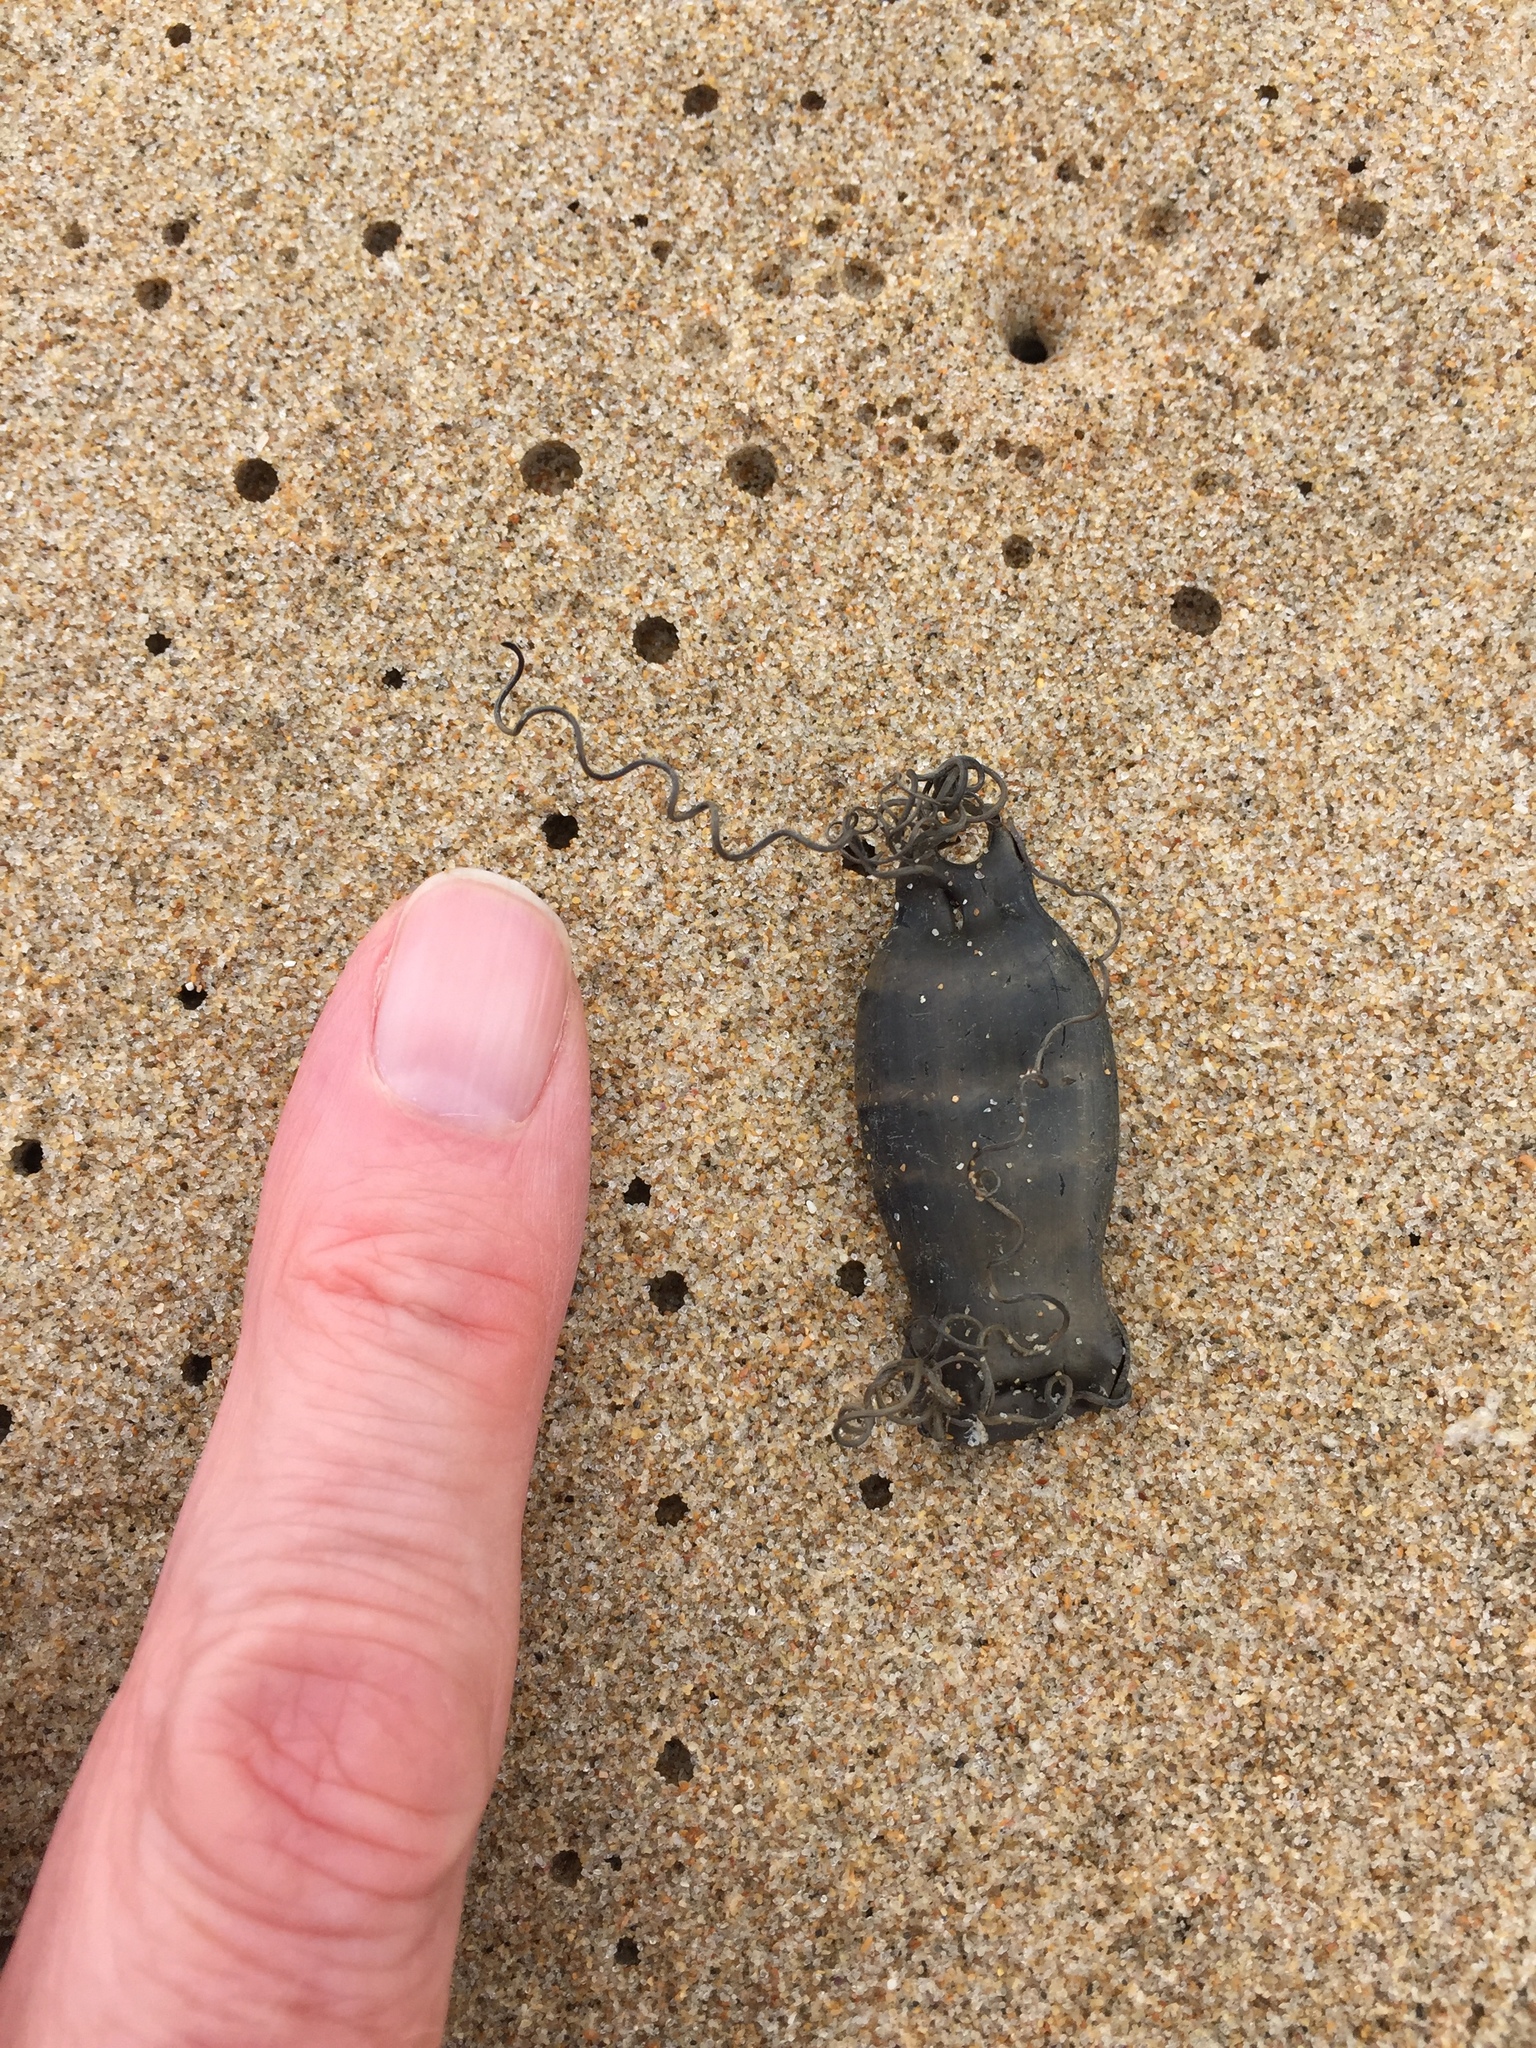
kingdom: Animalia
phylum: Chordata
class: Elasmobranchii
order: Carcharhiniformes
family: Scyliorhinidae
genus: Haploblepharus
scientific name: Haploblepharus edwardsii
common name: Puffadder shyshark
